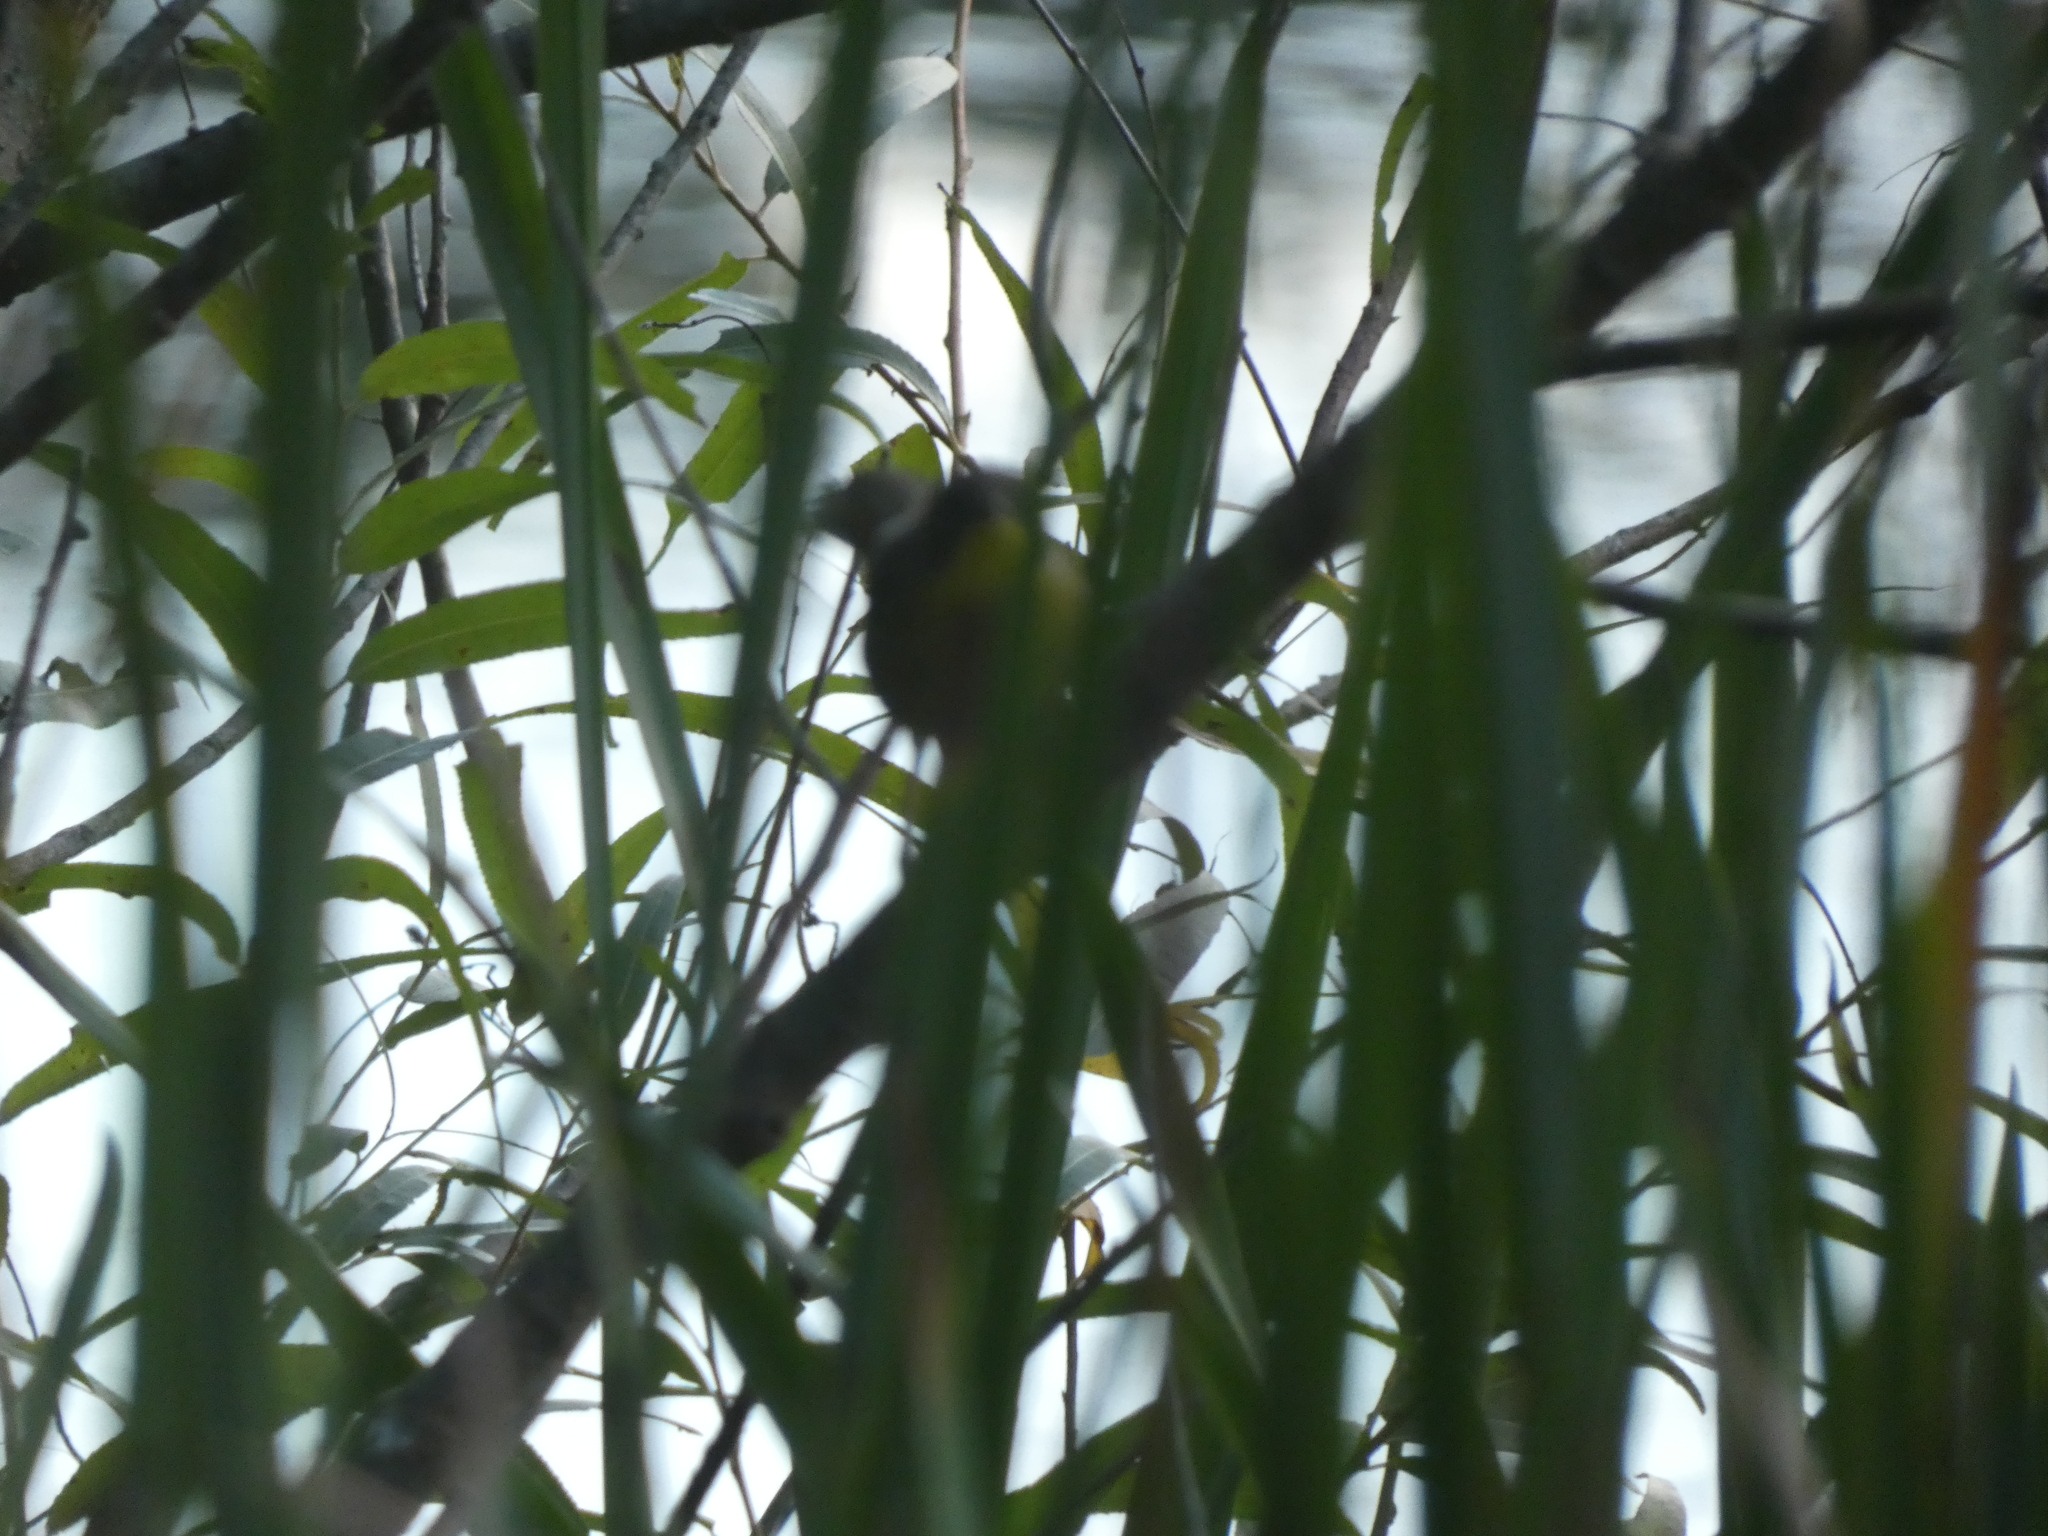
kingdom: Animalia
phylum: Chordata
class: Aves
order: Passeriformes
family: Parulidae
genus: Geothlypis
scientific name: Geothlypis trichas
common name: Common yellowthroat
